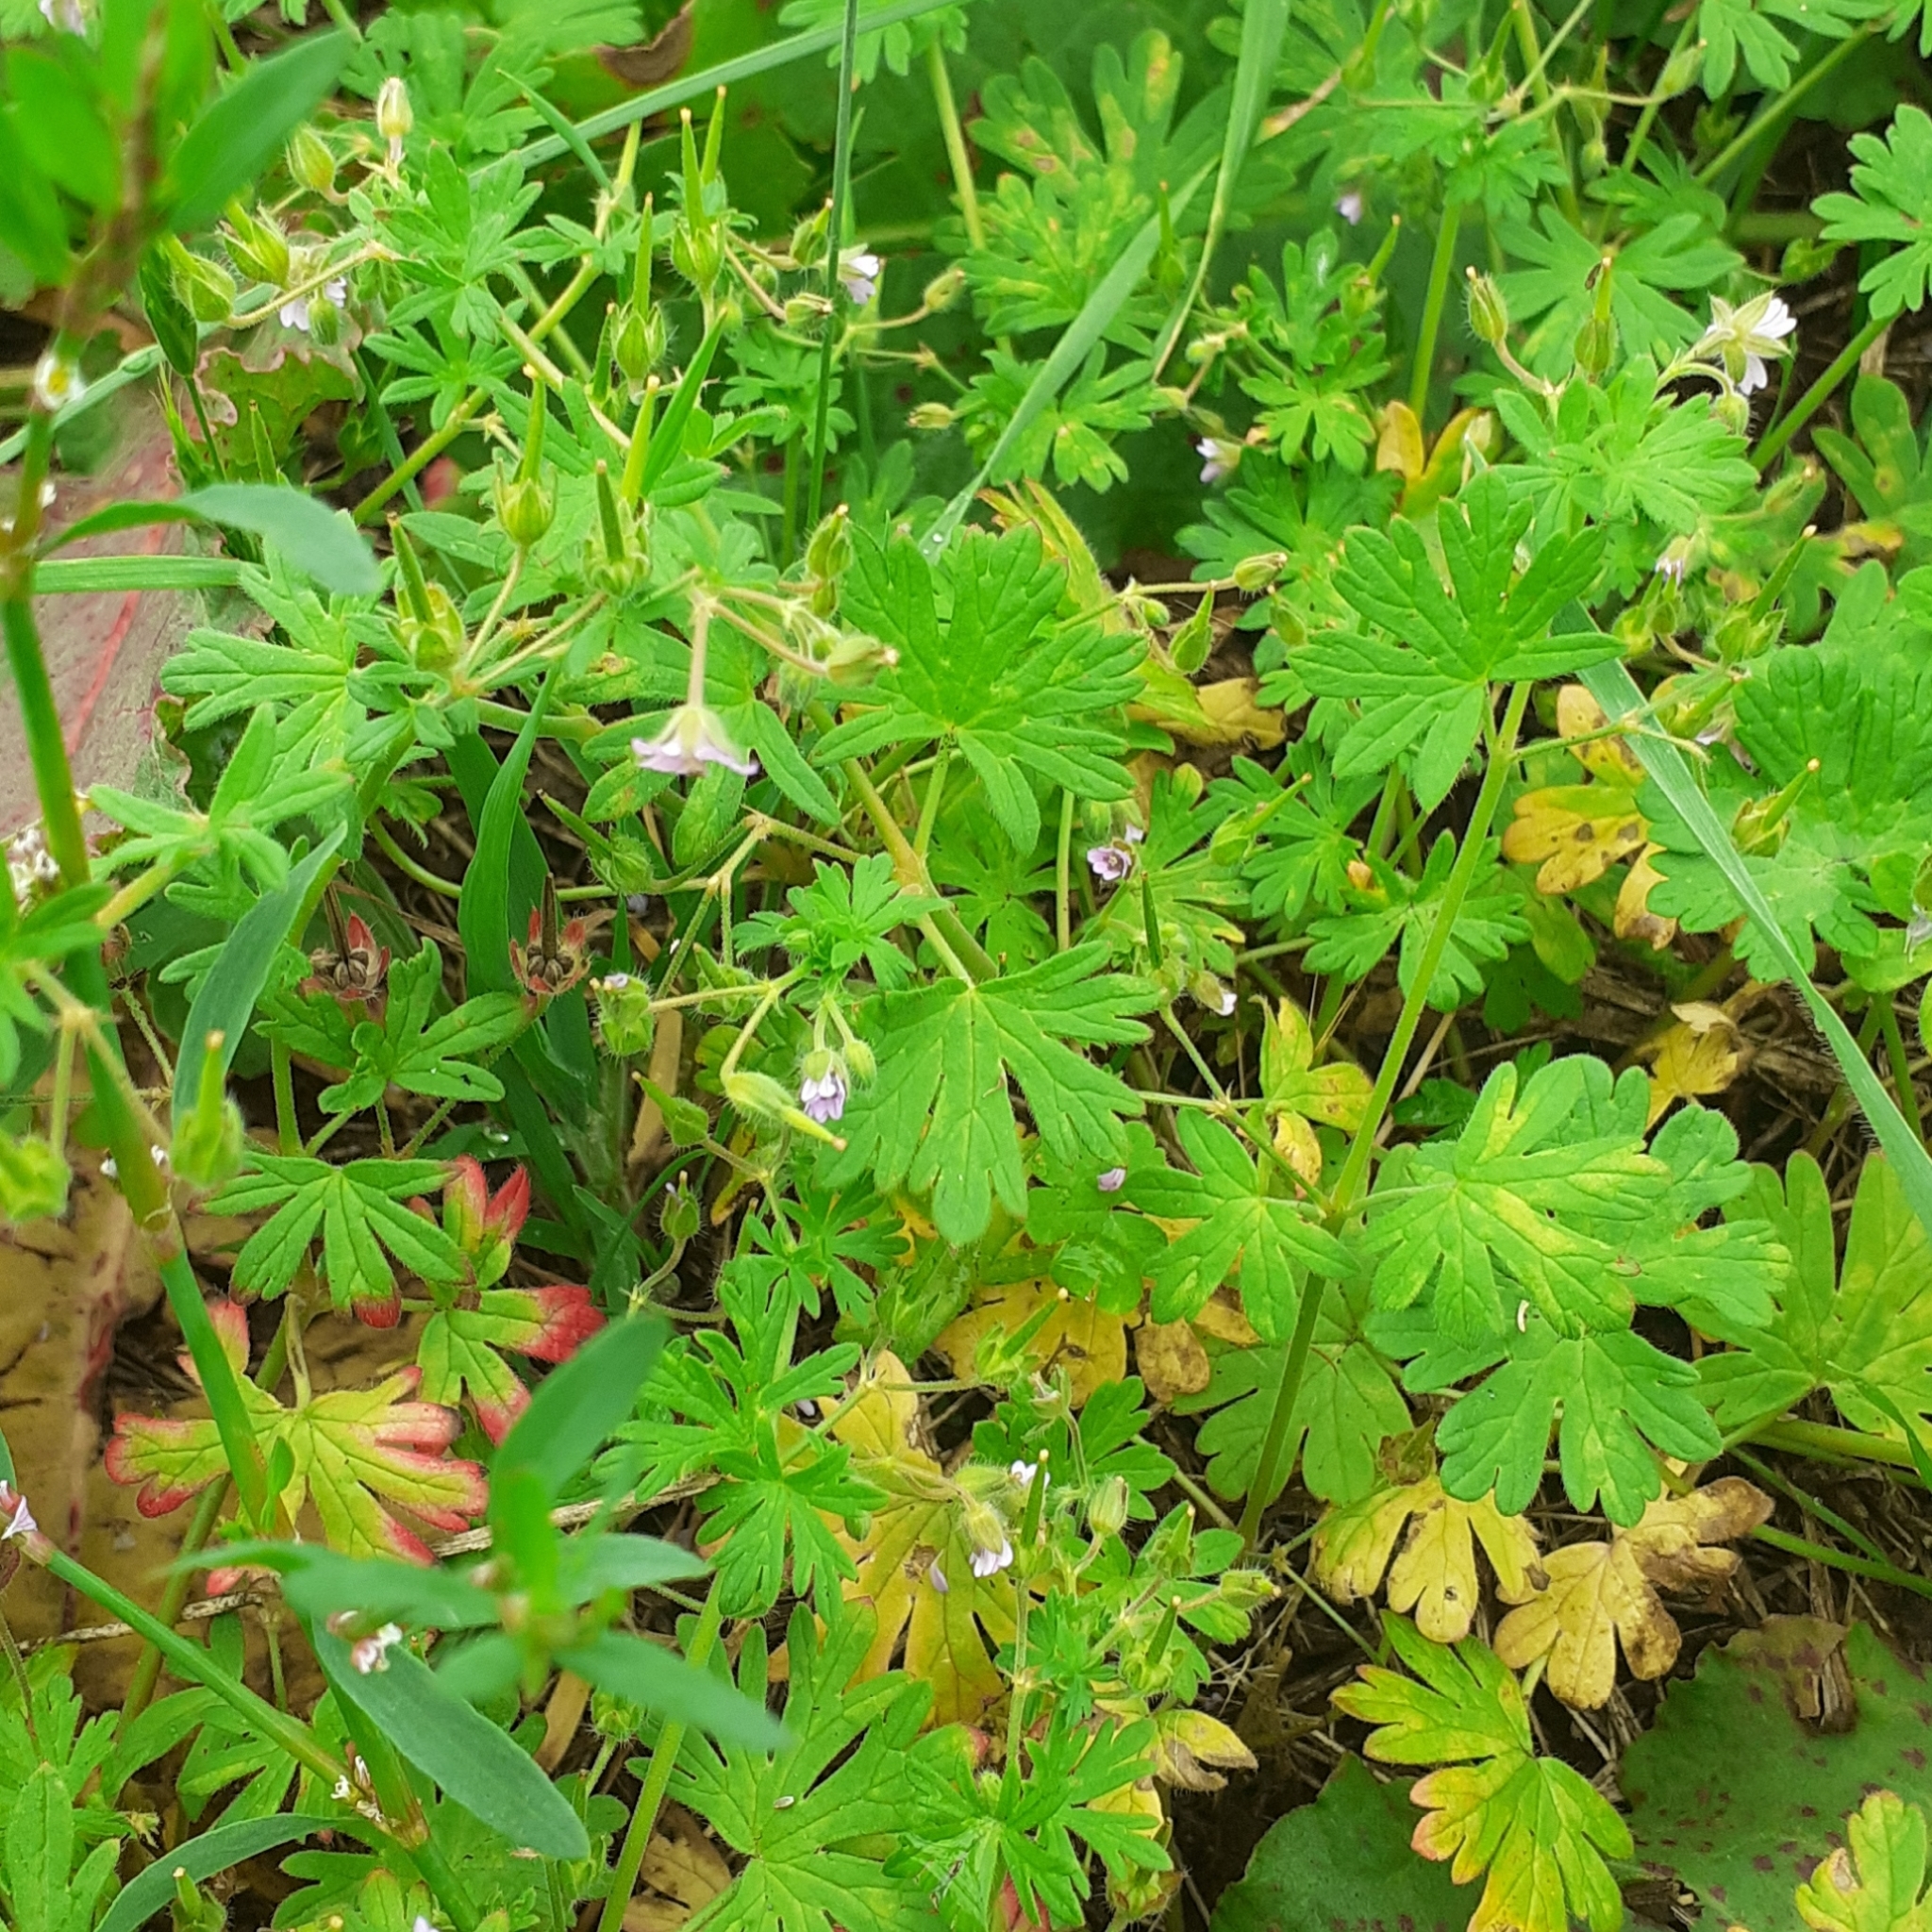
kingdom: Plantae
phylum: Tracheophyta
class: Magnoliopsida
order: Geraniales
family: Geraniaceae
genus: Geranium
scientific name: Geranium pusillum
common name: Small geranium
